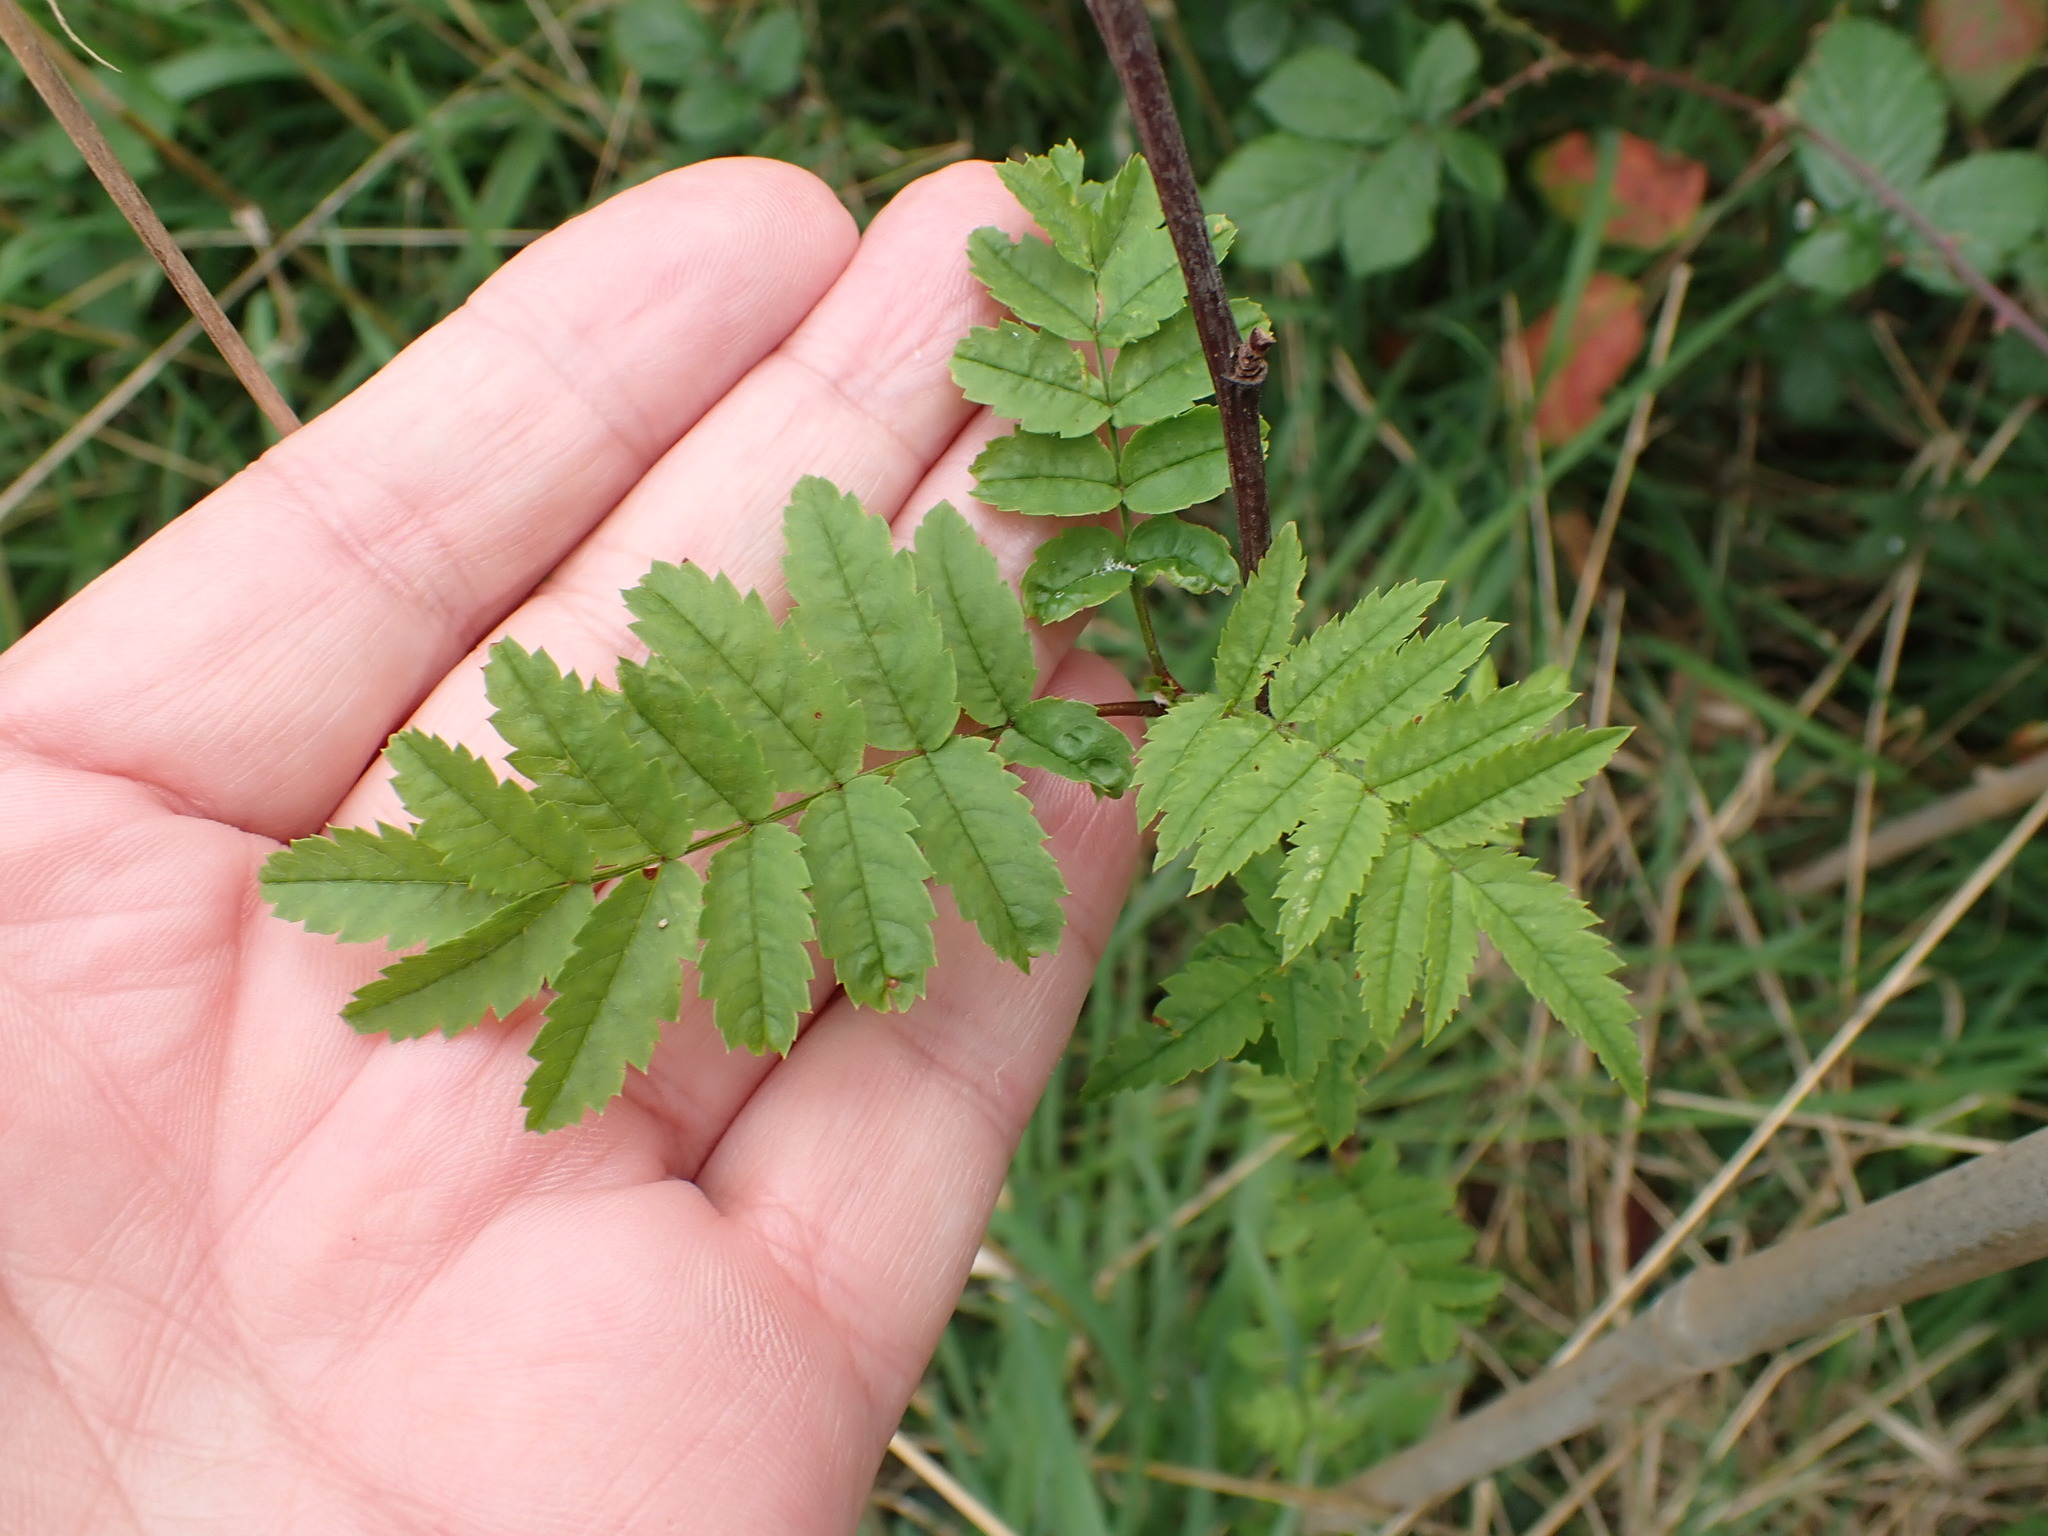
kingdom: Plantae
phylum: Tracheophyta
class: Magnoliopsida
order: Rosales
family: Rosaceae
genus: Sorbus
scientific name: Sorbus aucuparia
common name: Rowan
